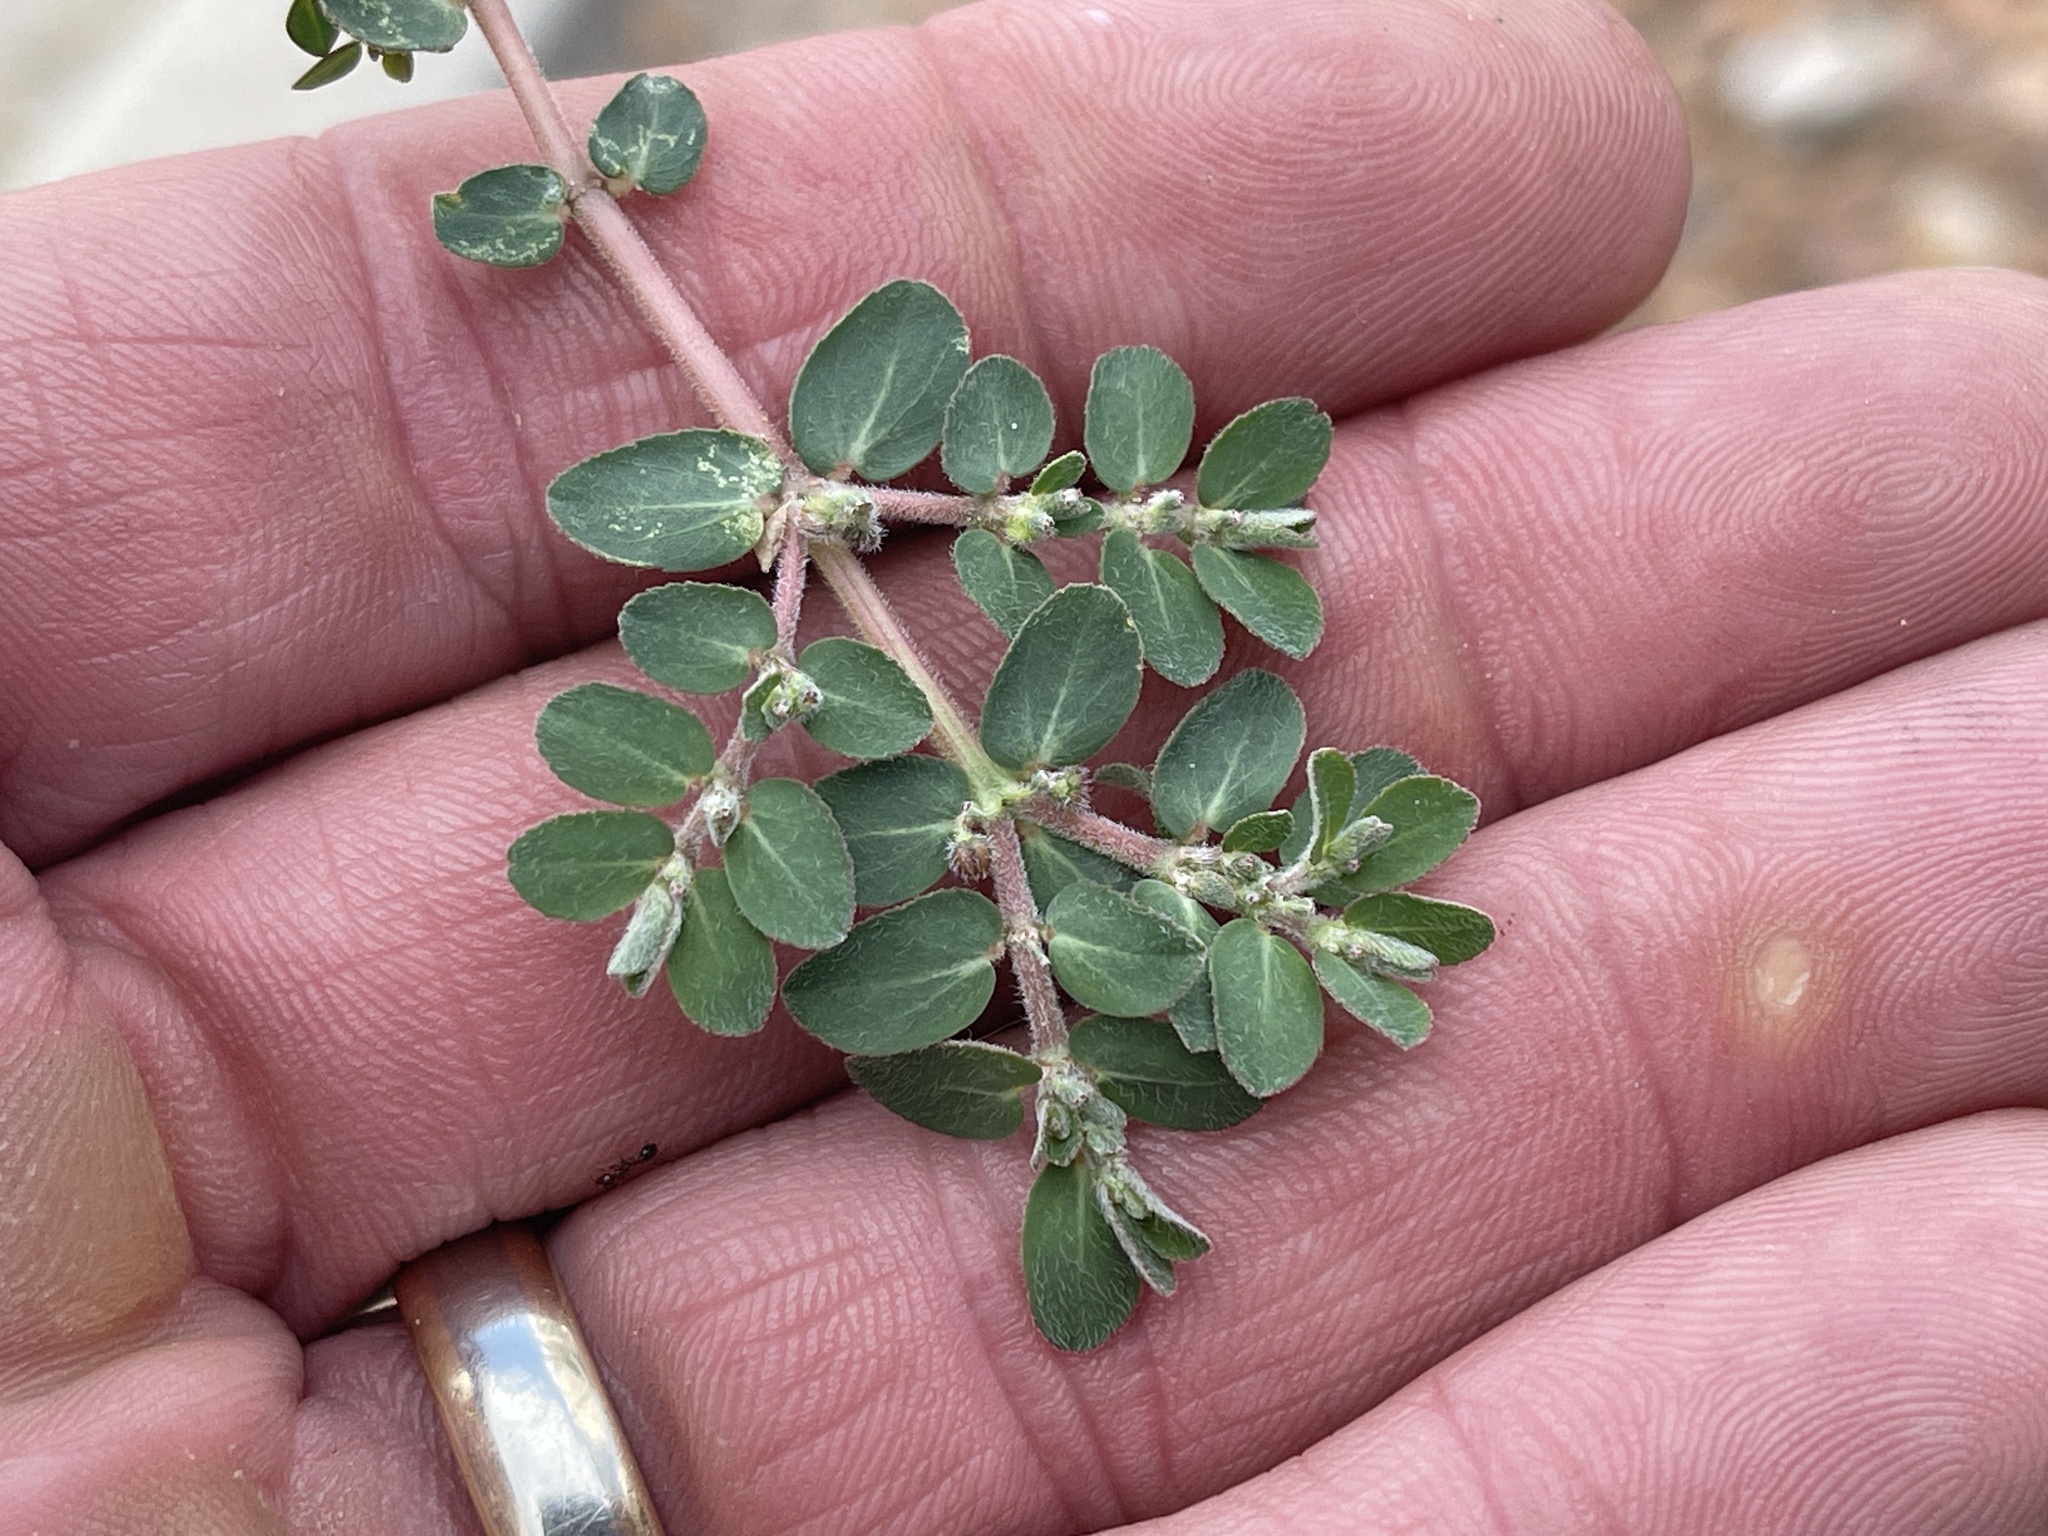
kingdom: Plantae
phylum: Tracheophyta
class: Magnoliopsida
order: Malpighiales
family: Euphorbiaceae
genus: Euphorbia
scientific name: Euphorbia prostrata
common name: Prostrate sandmat
